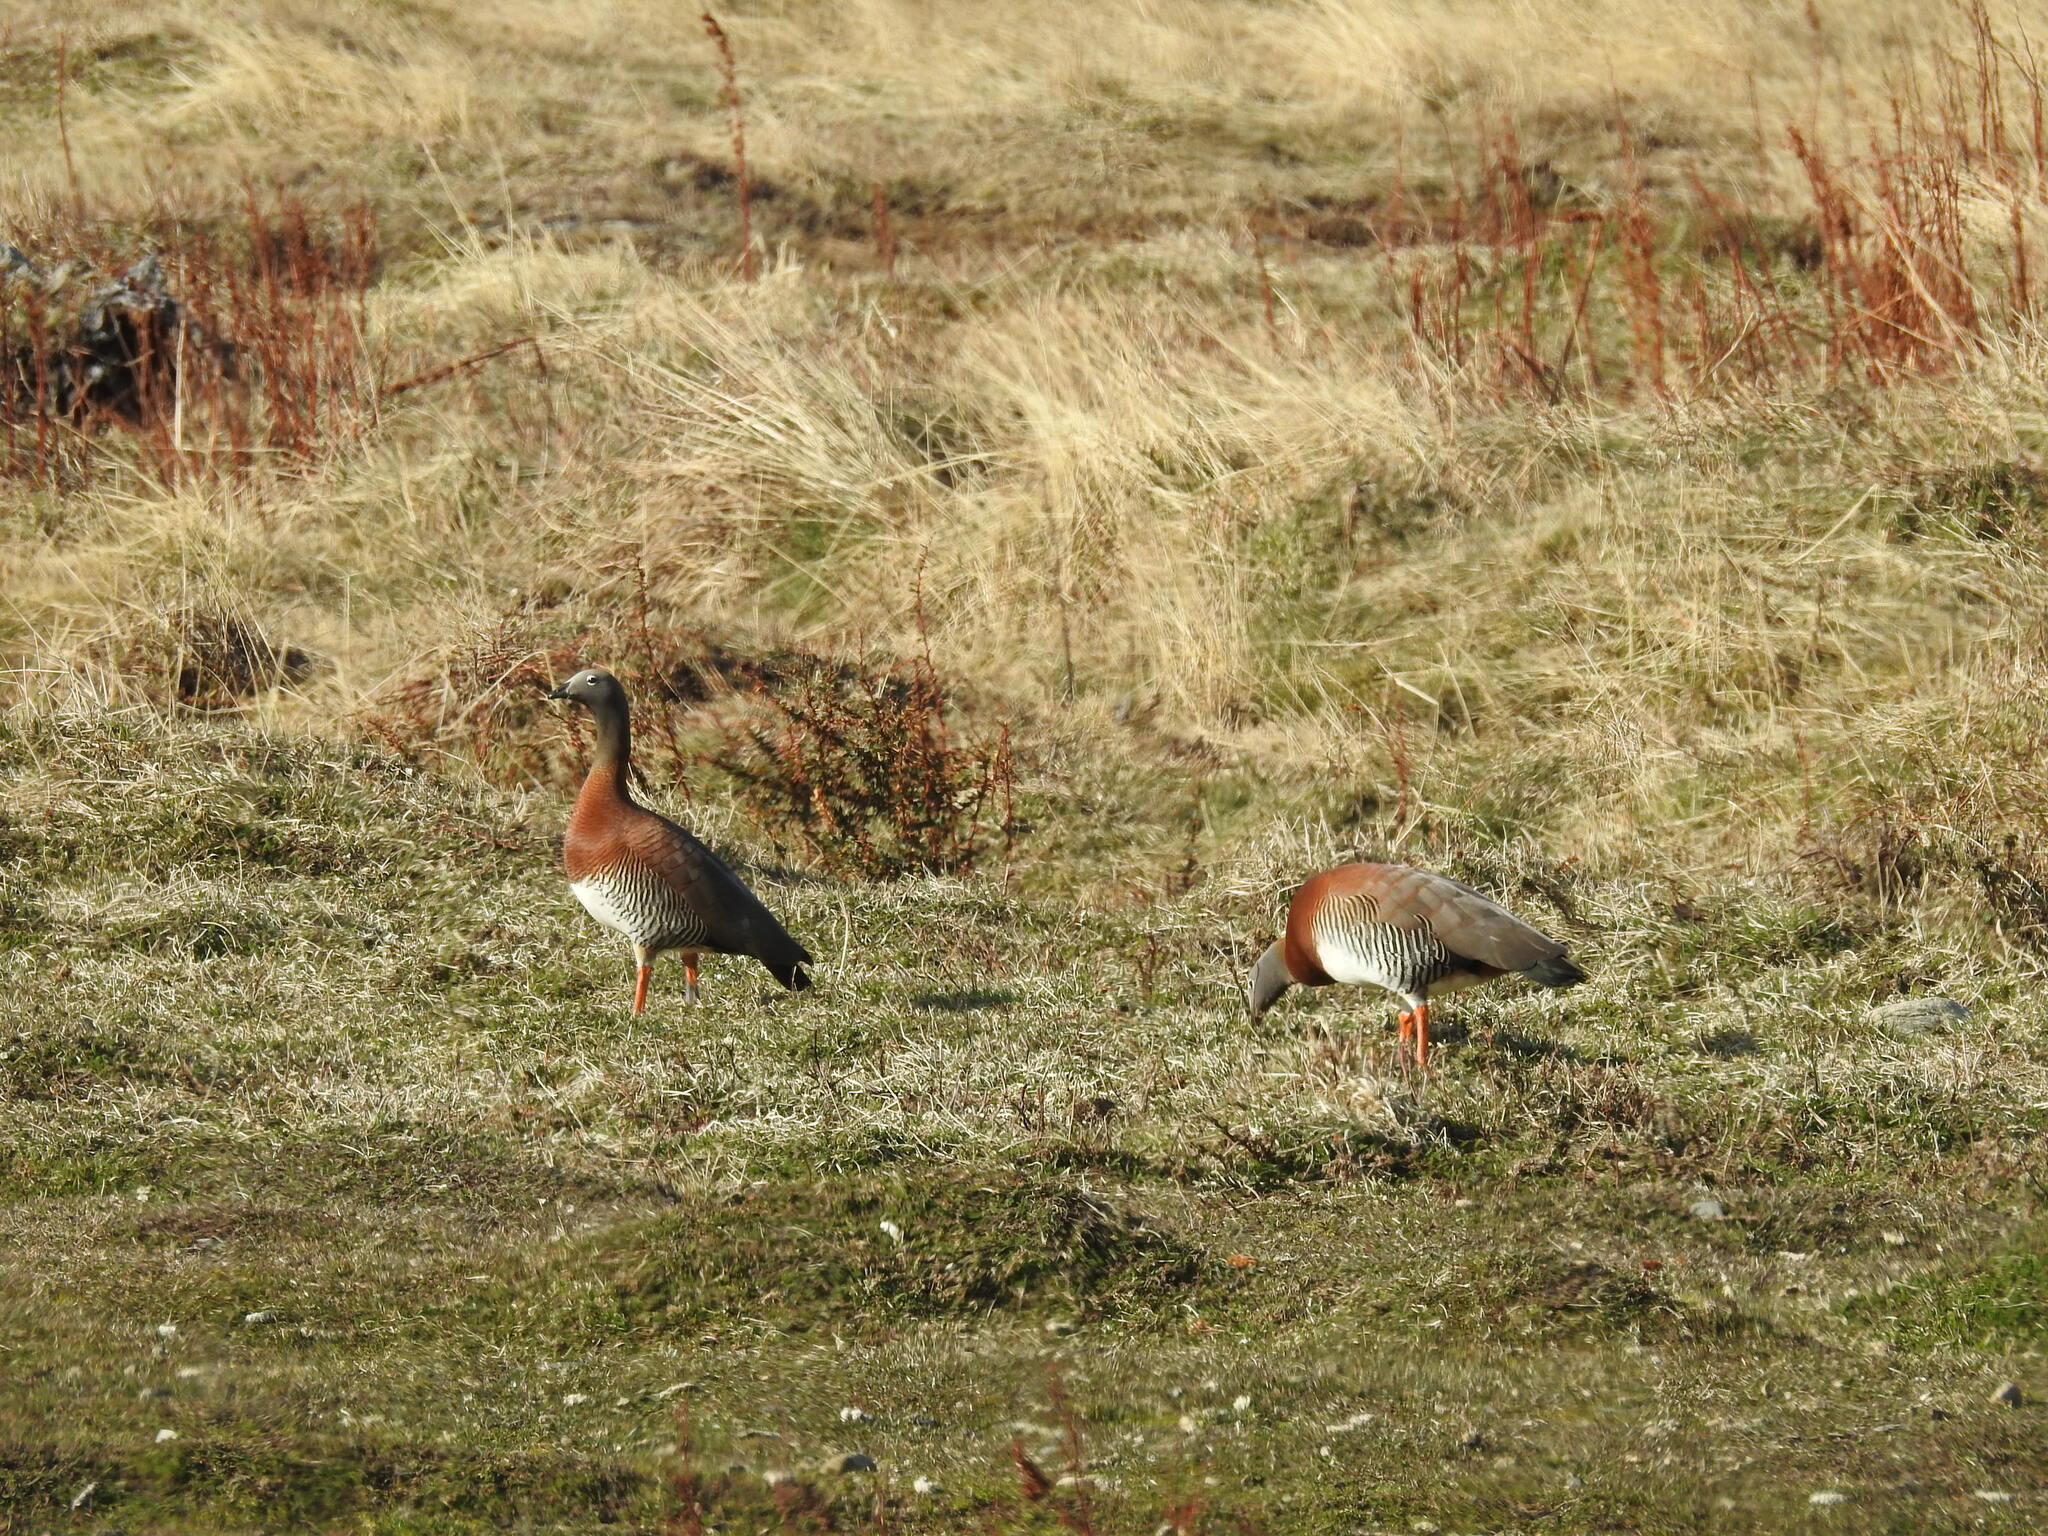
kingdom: Animalia
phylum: Chordata
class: Aves
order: Anseriformes
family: Anatidae
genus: Chloephaga
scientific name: Chloephaga poliocephala
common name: Ashy-headed goose
